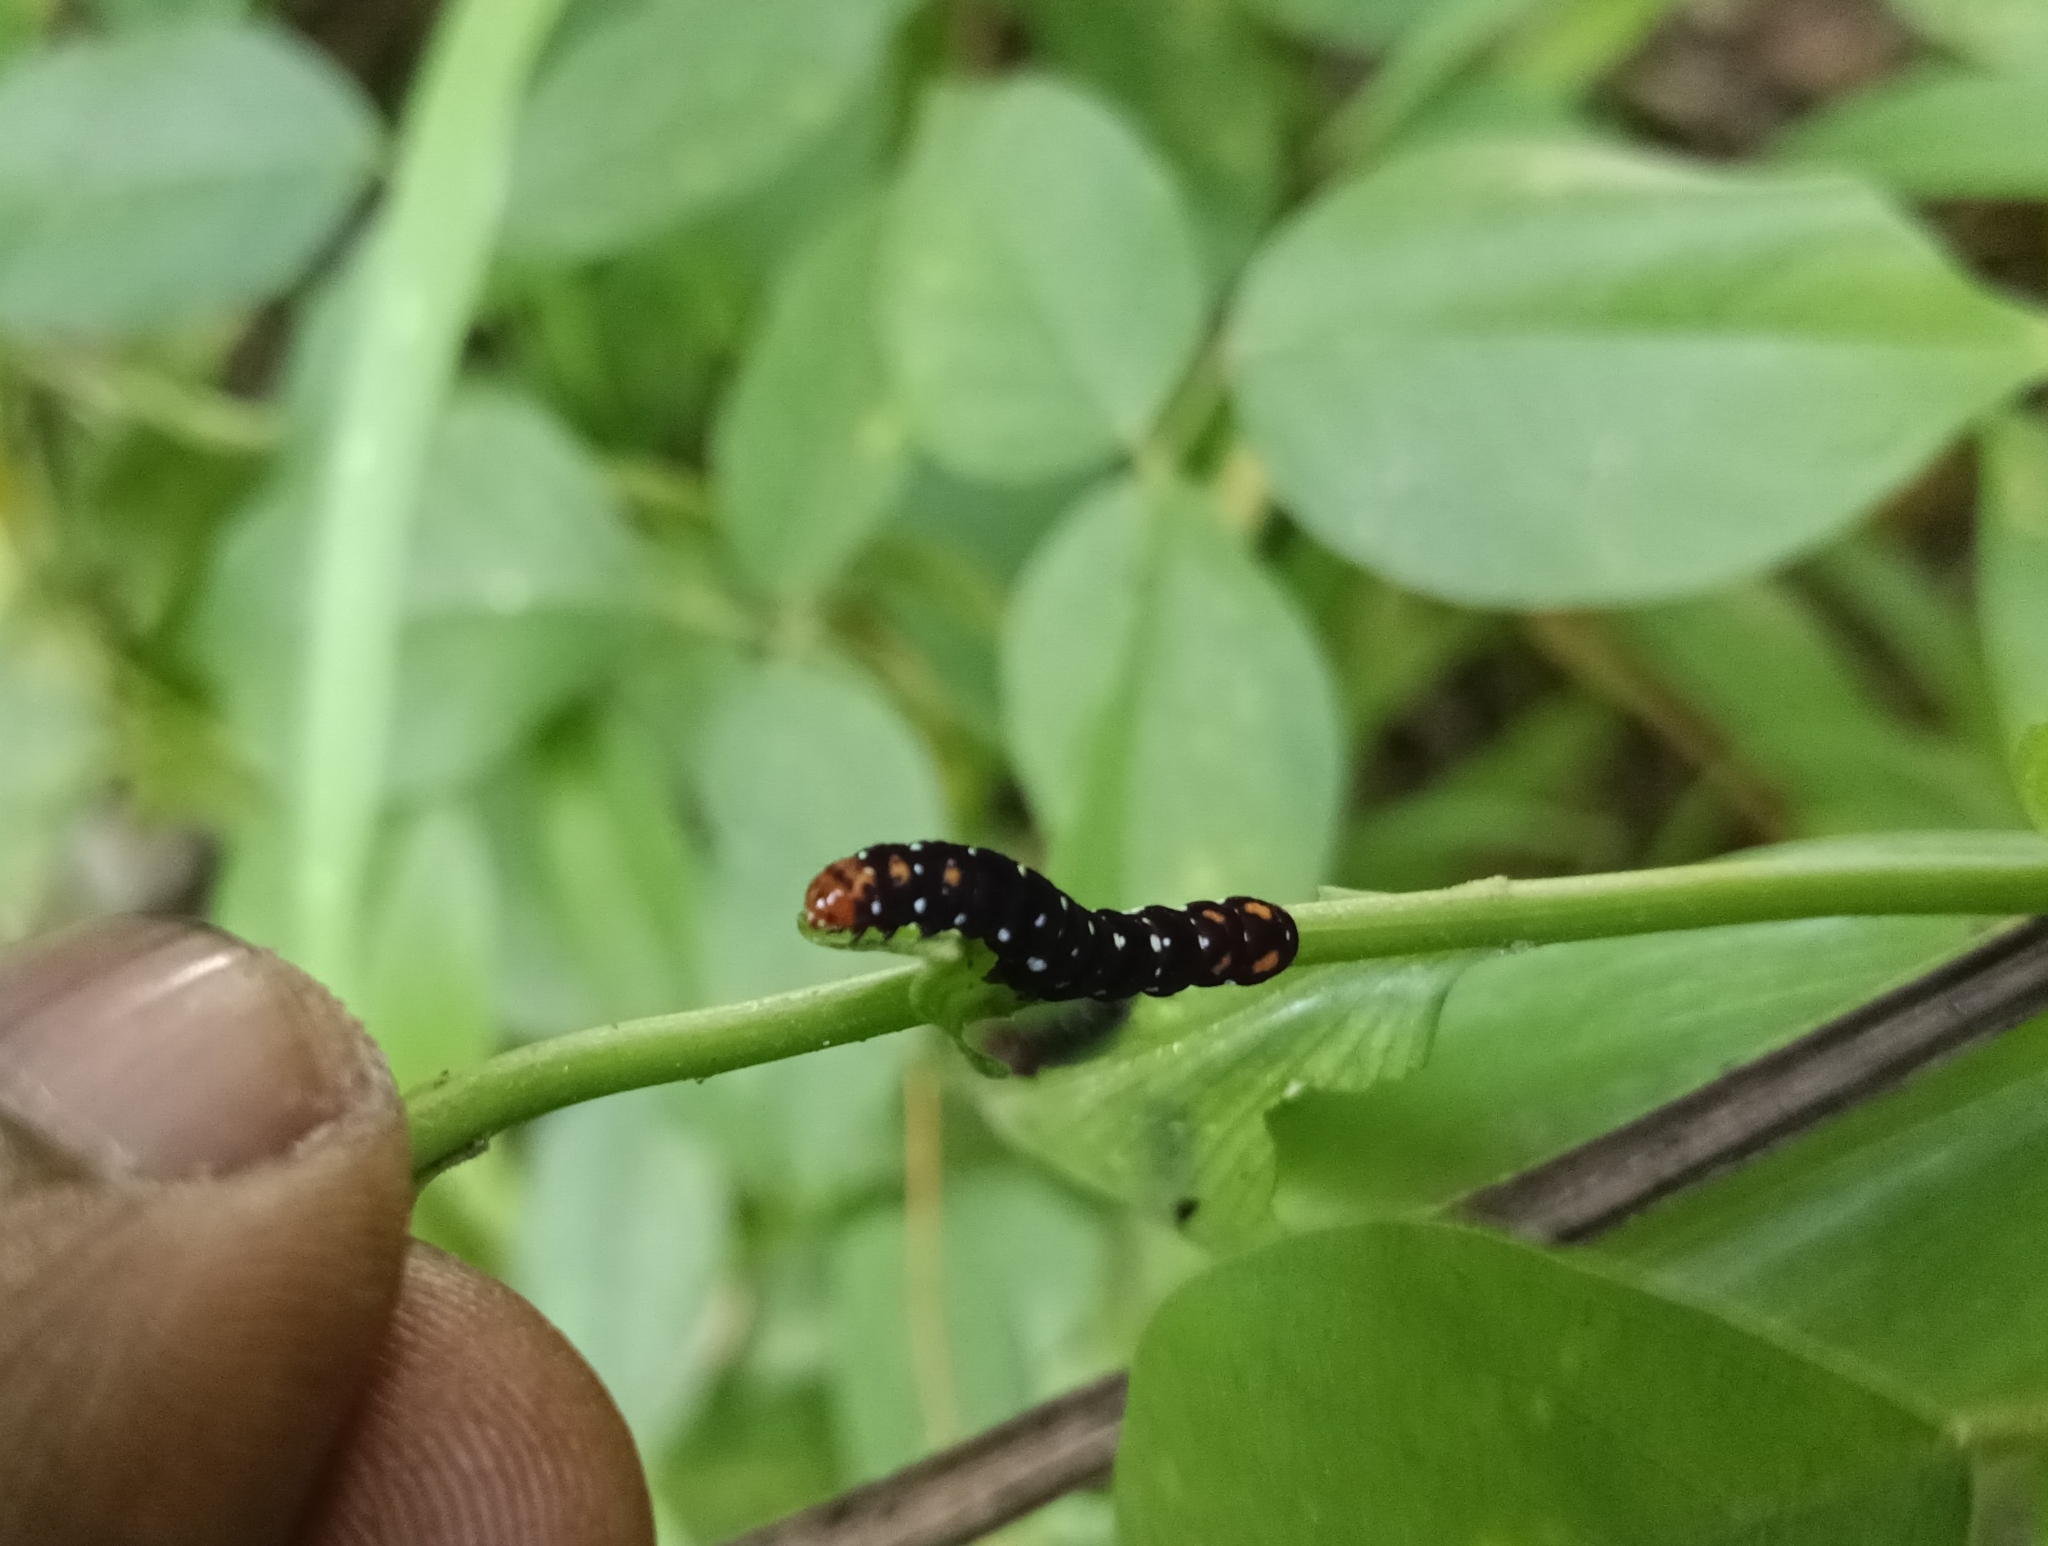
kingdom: Animalia
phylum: Arthropoda
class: Insecta
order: Lepidoptera
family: Noctuidae
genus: Polytela
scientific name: Polytela gloriosae
